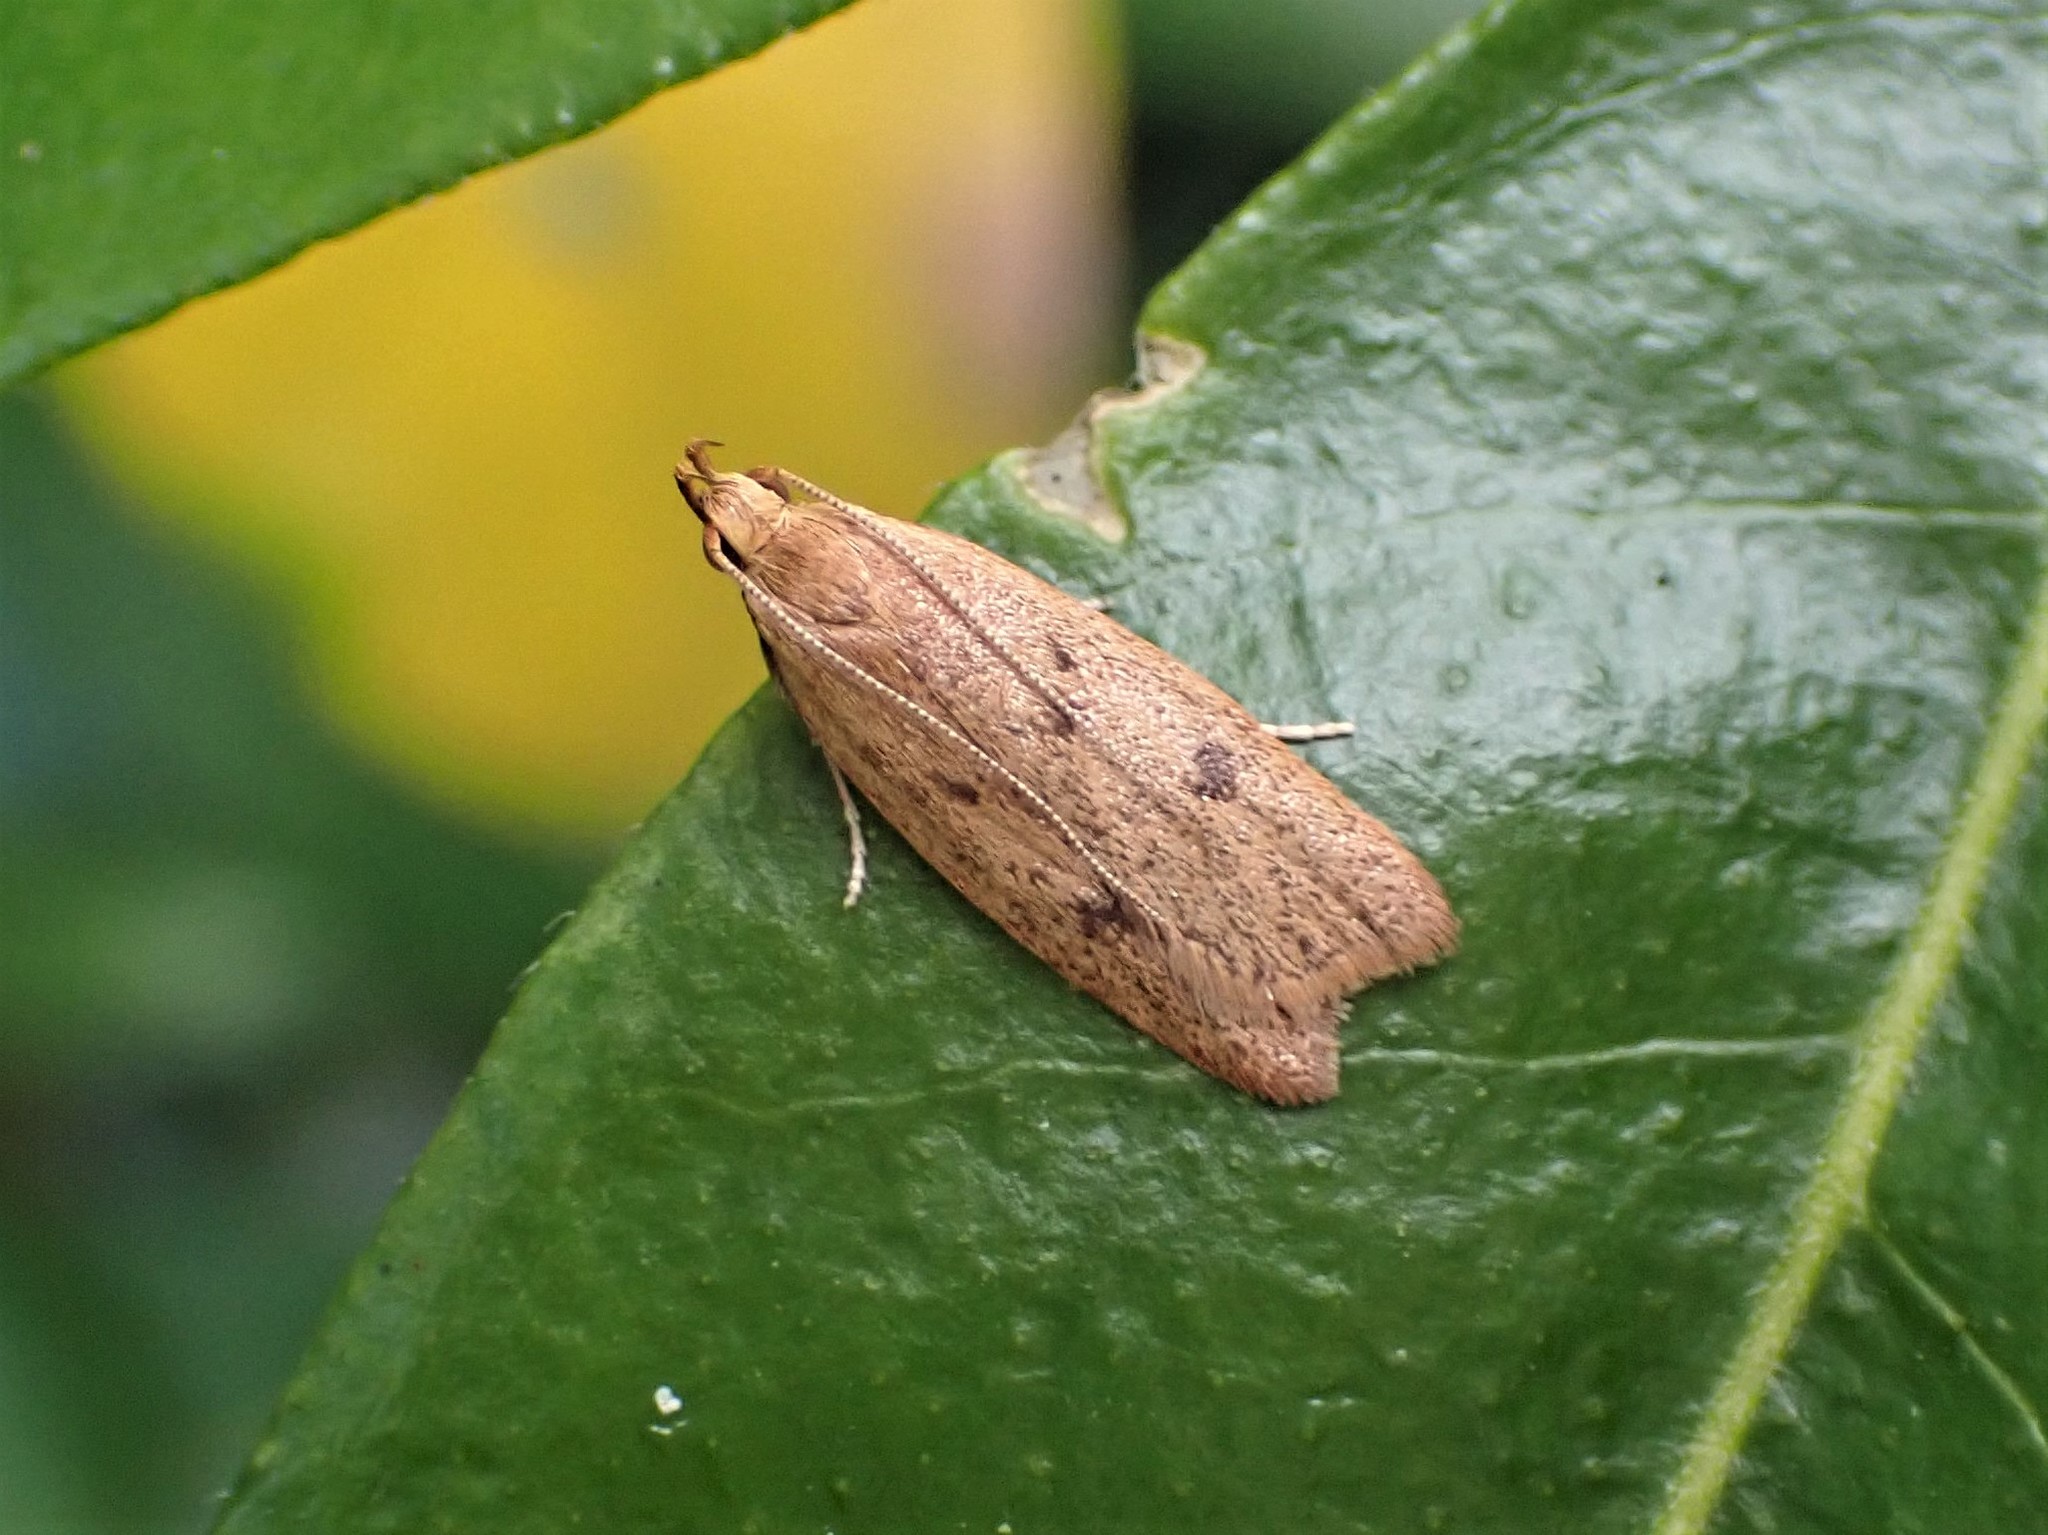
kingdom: Animalia
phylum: Arthropoda
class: Insecta
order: Lepidoptera
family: Oecophoridae
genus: Gymnobathra
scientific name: Gymnobathra sarcoxantha
